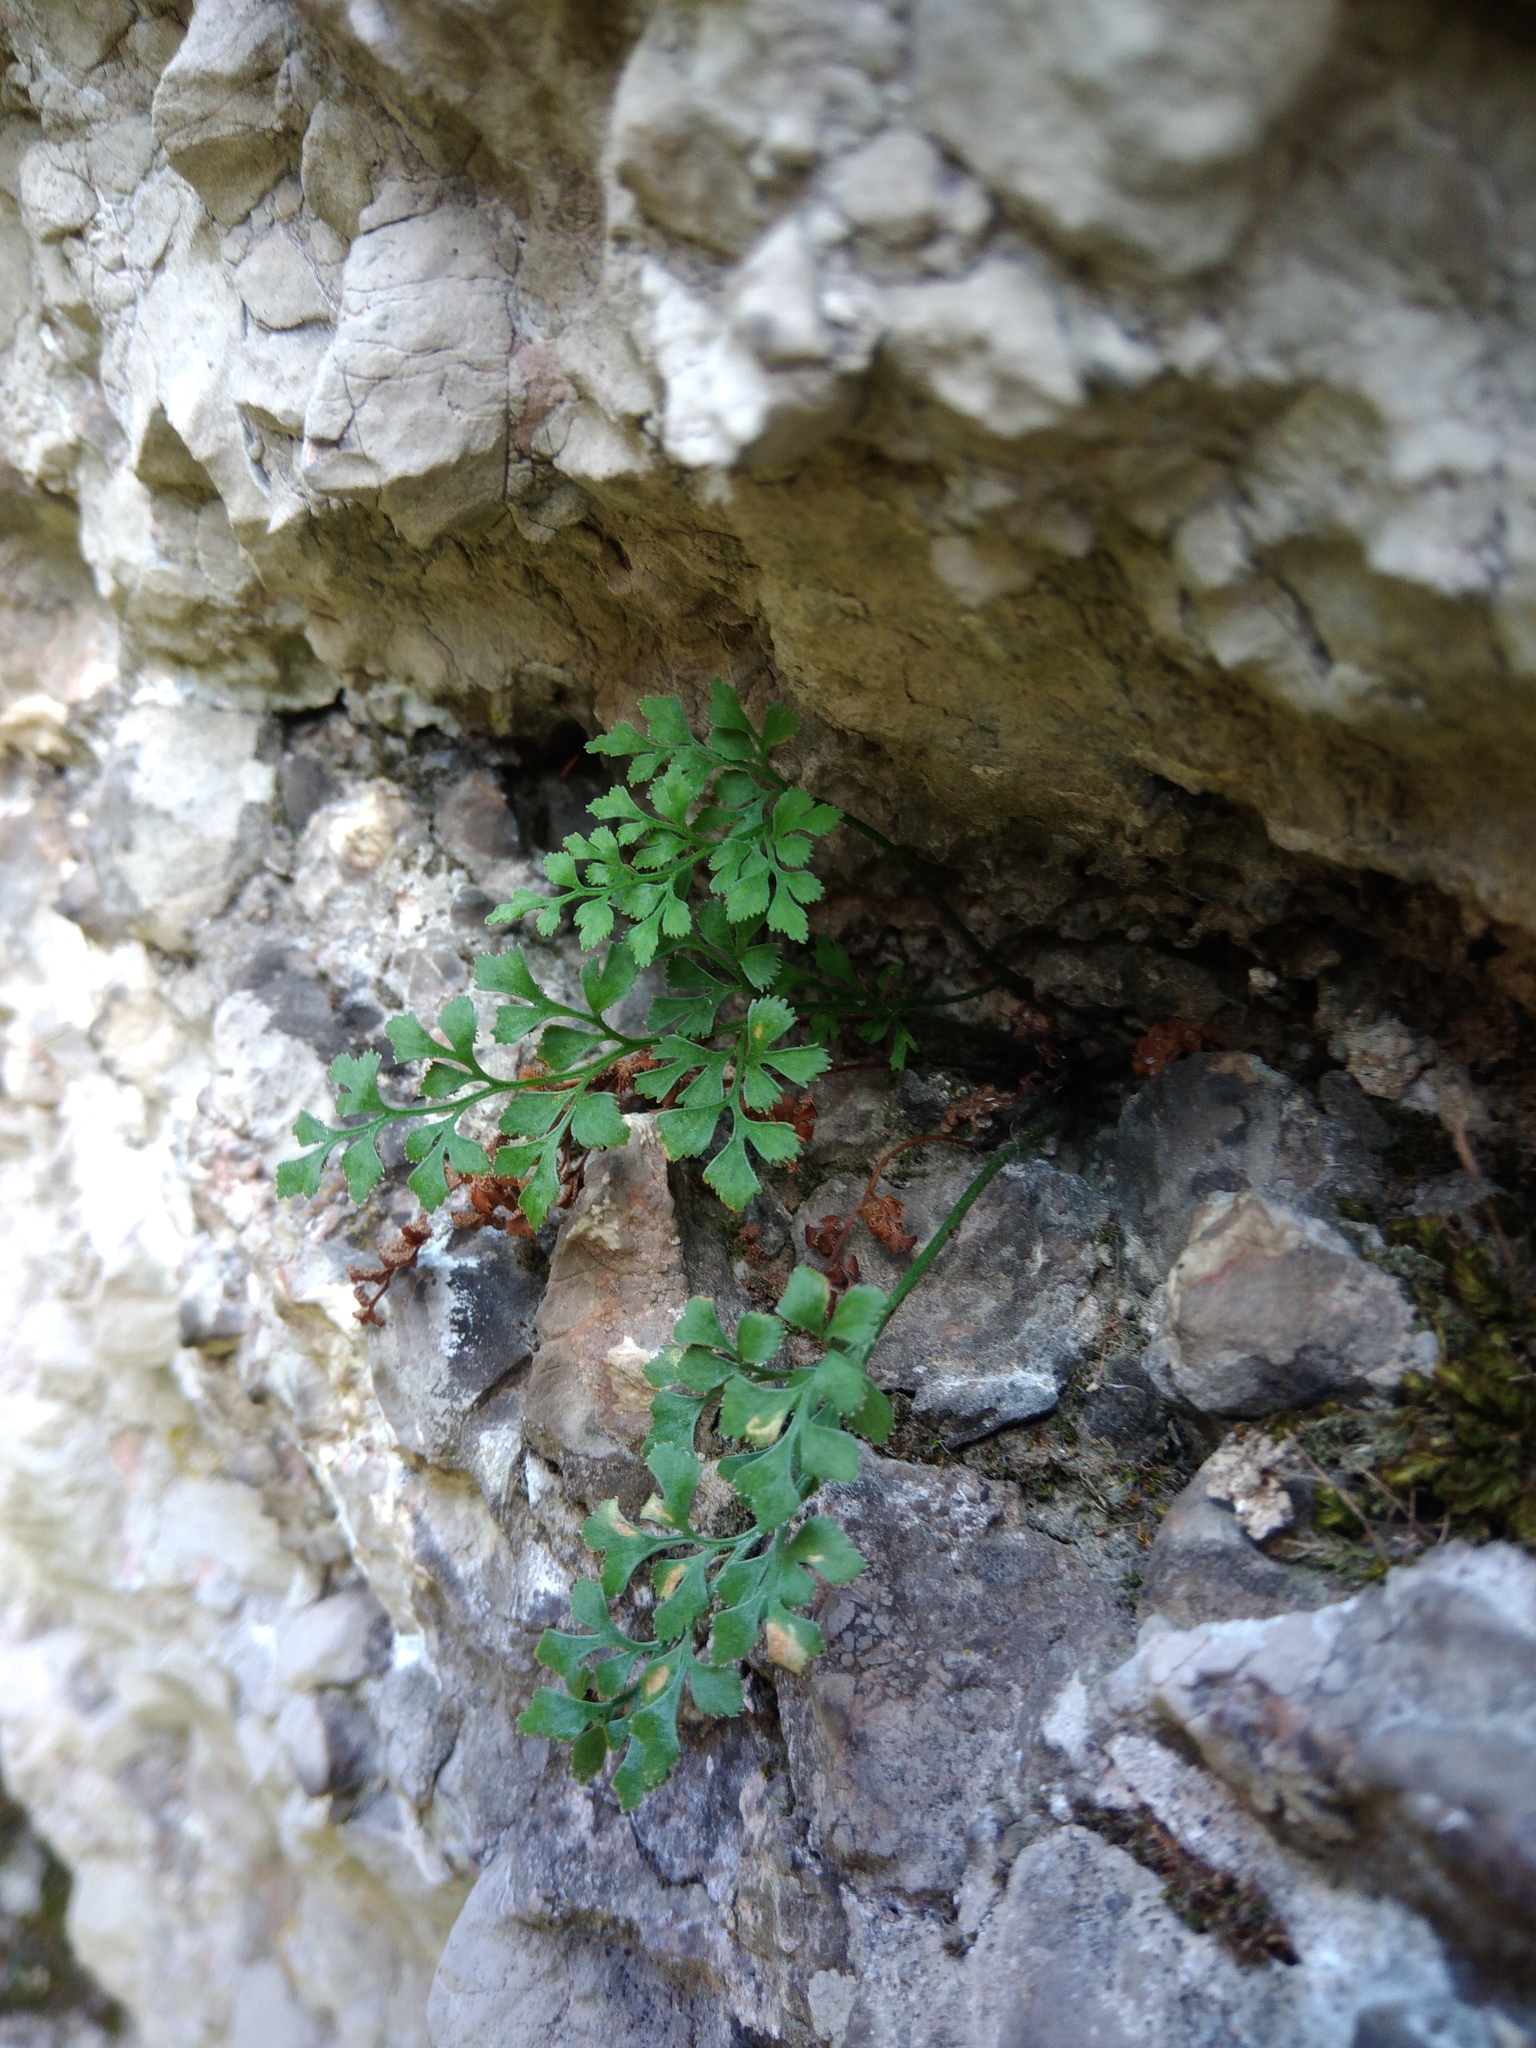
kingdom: Plantae
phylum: Tracheophyta
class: Polypodiopsida
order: Polypodiales
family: Aspleniaceae
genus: Asplenium
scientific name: Asplenium ruta-muraria
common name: Wall-rue
